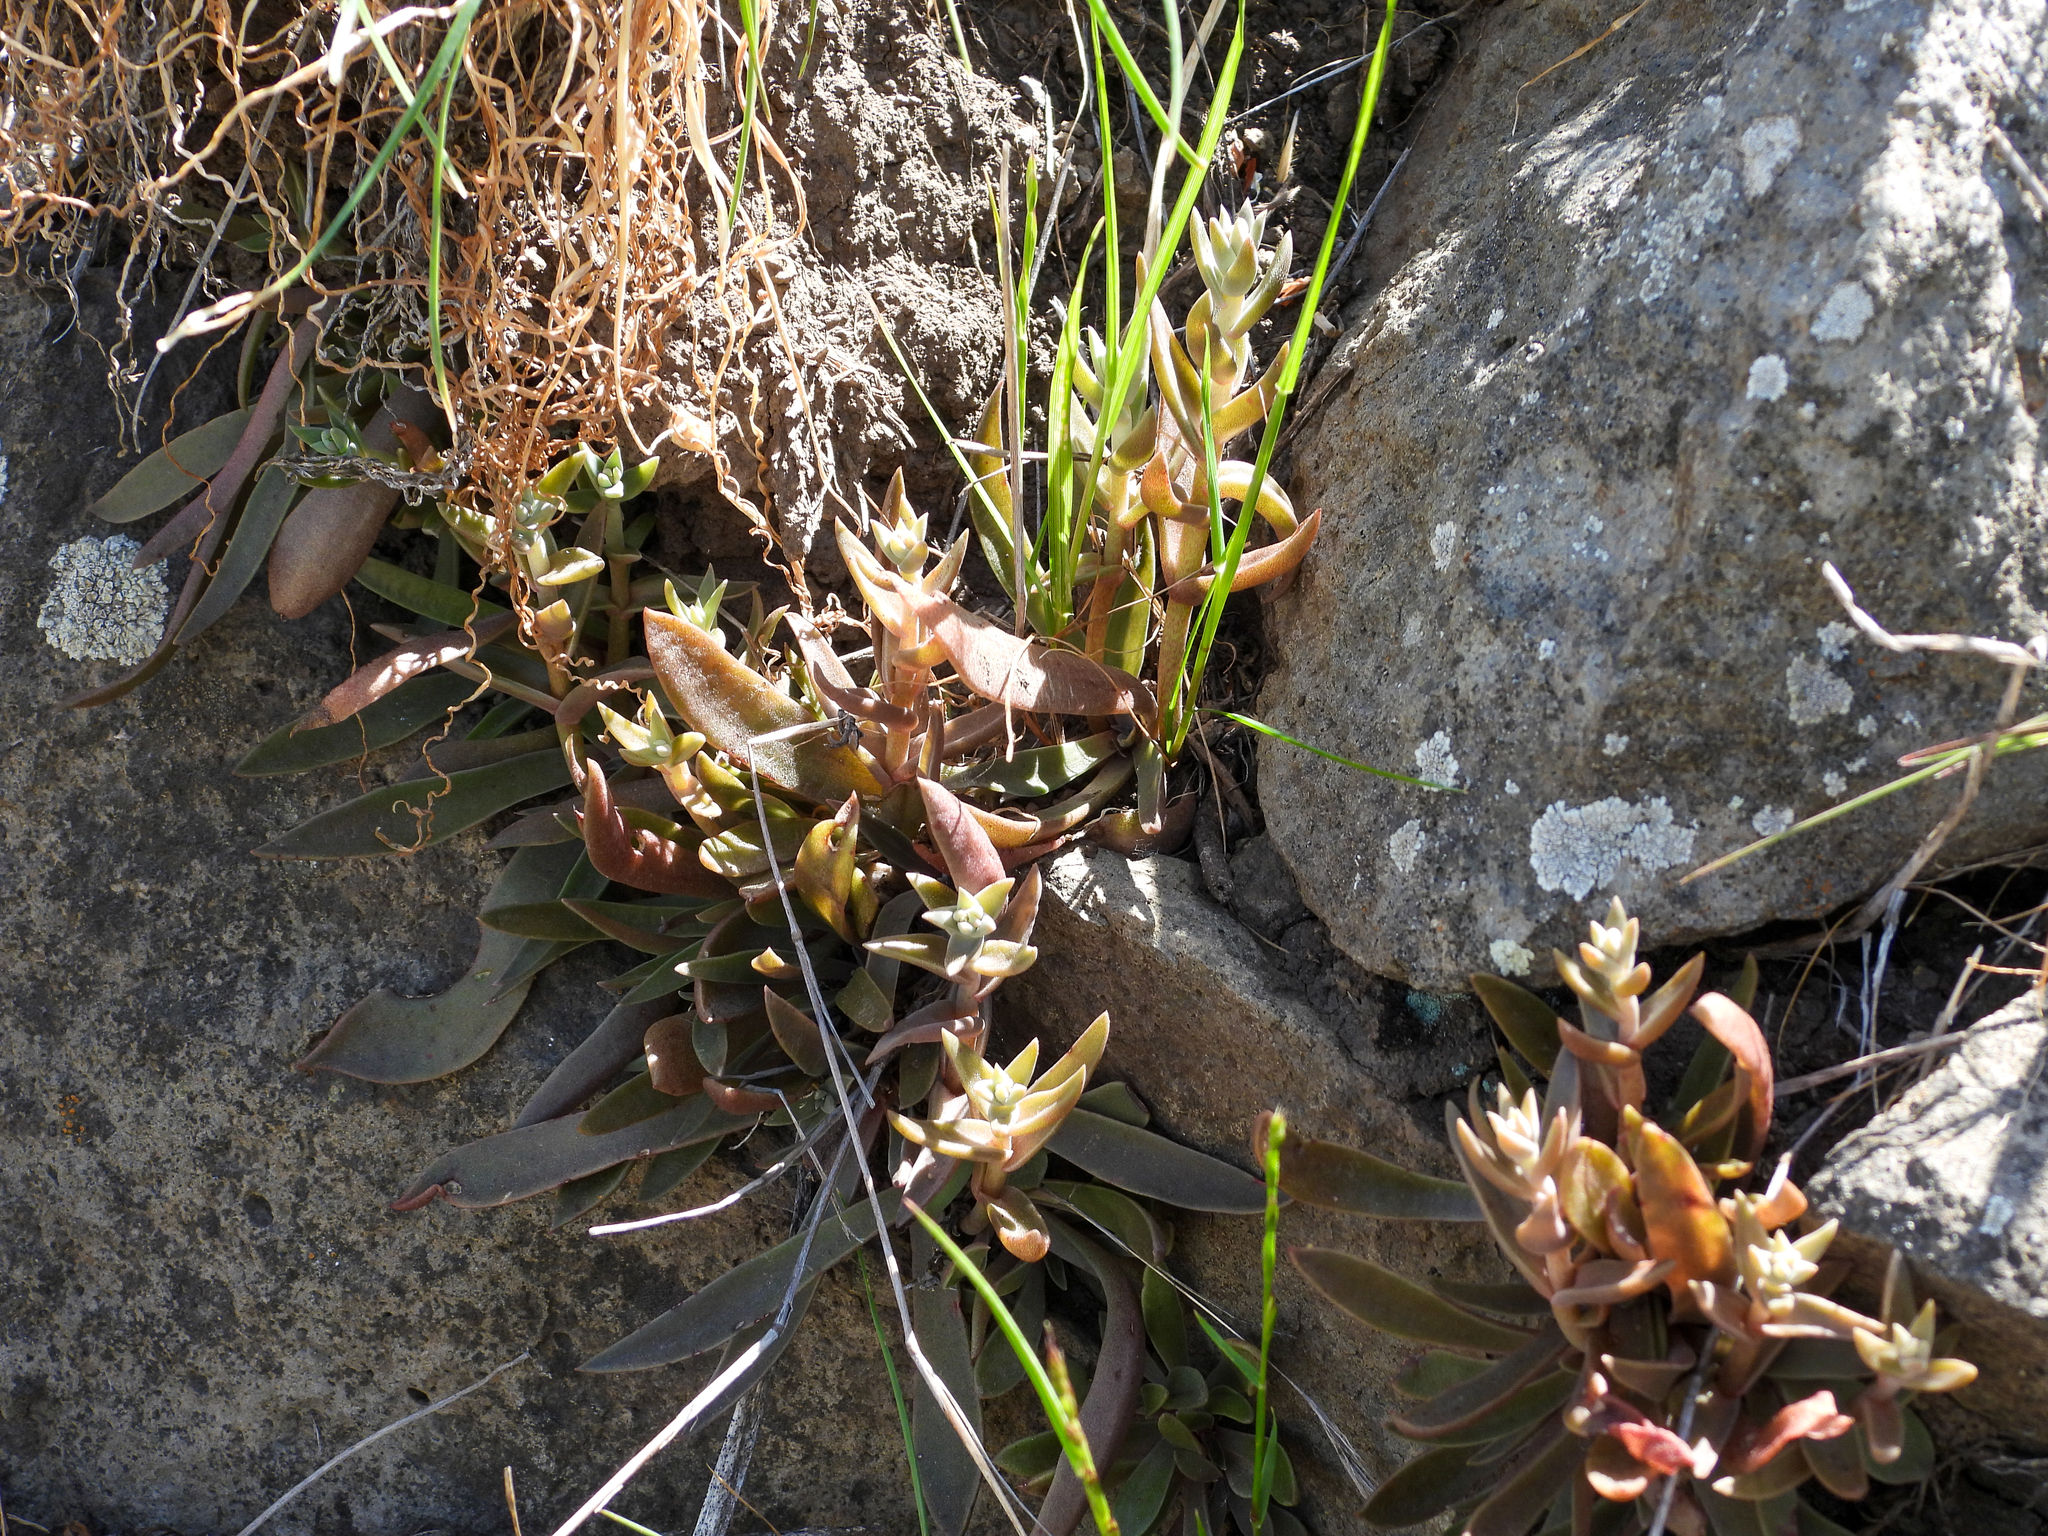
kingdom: Plantae
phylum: Tracheophyta
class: Magnoliopsida
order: Saxifragales
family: Crassulaceae
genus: Dudleya
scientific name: Dudleya parva
